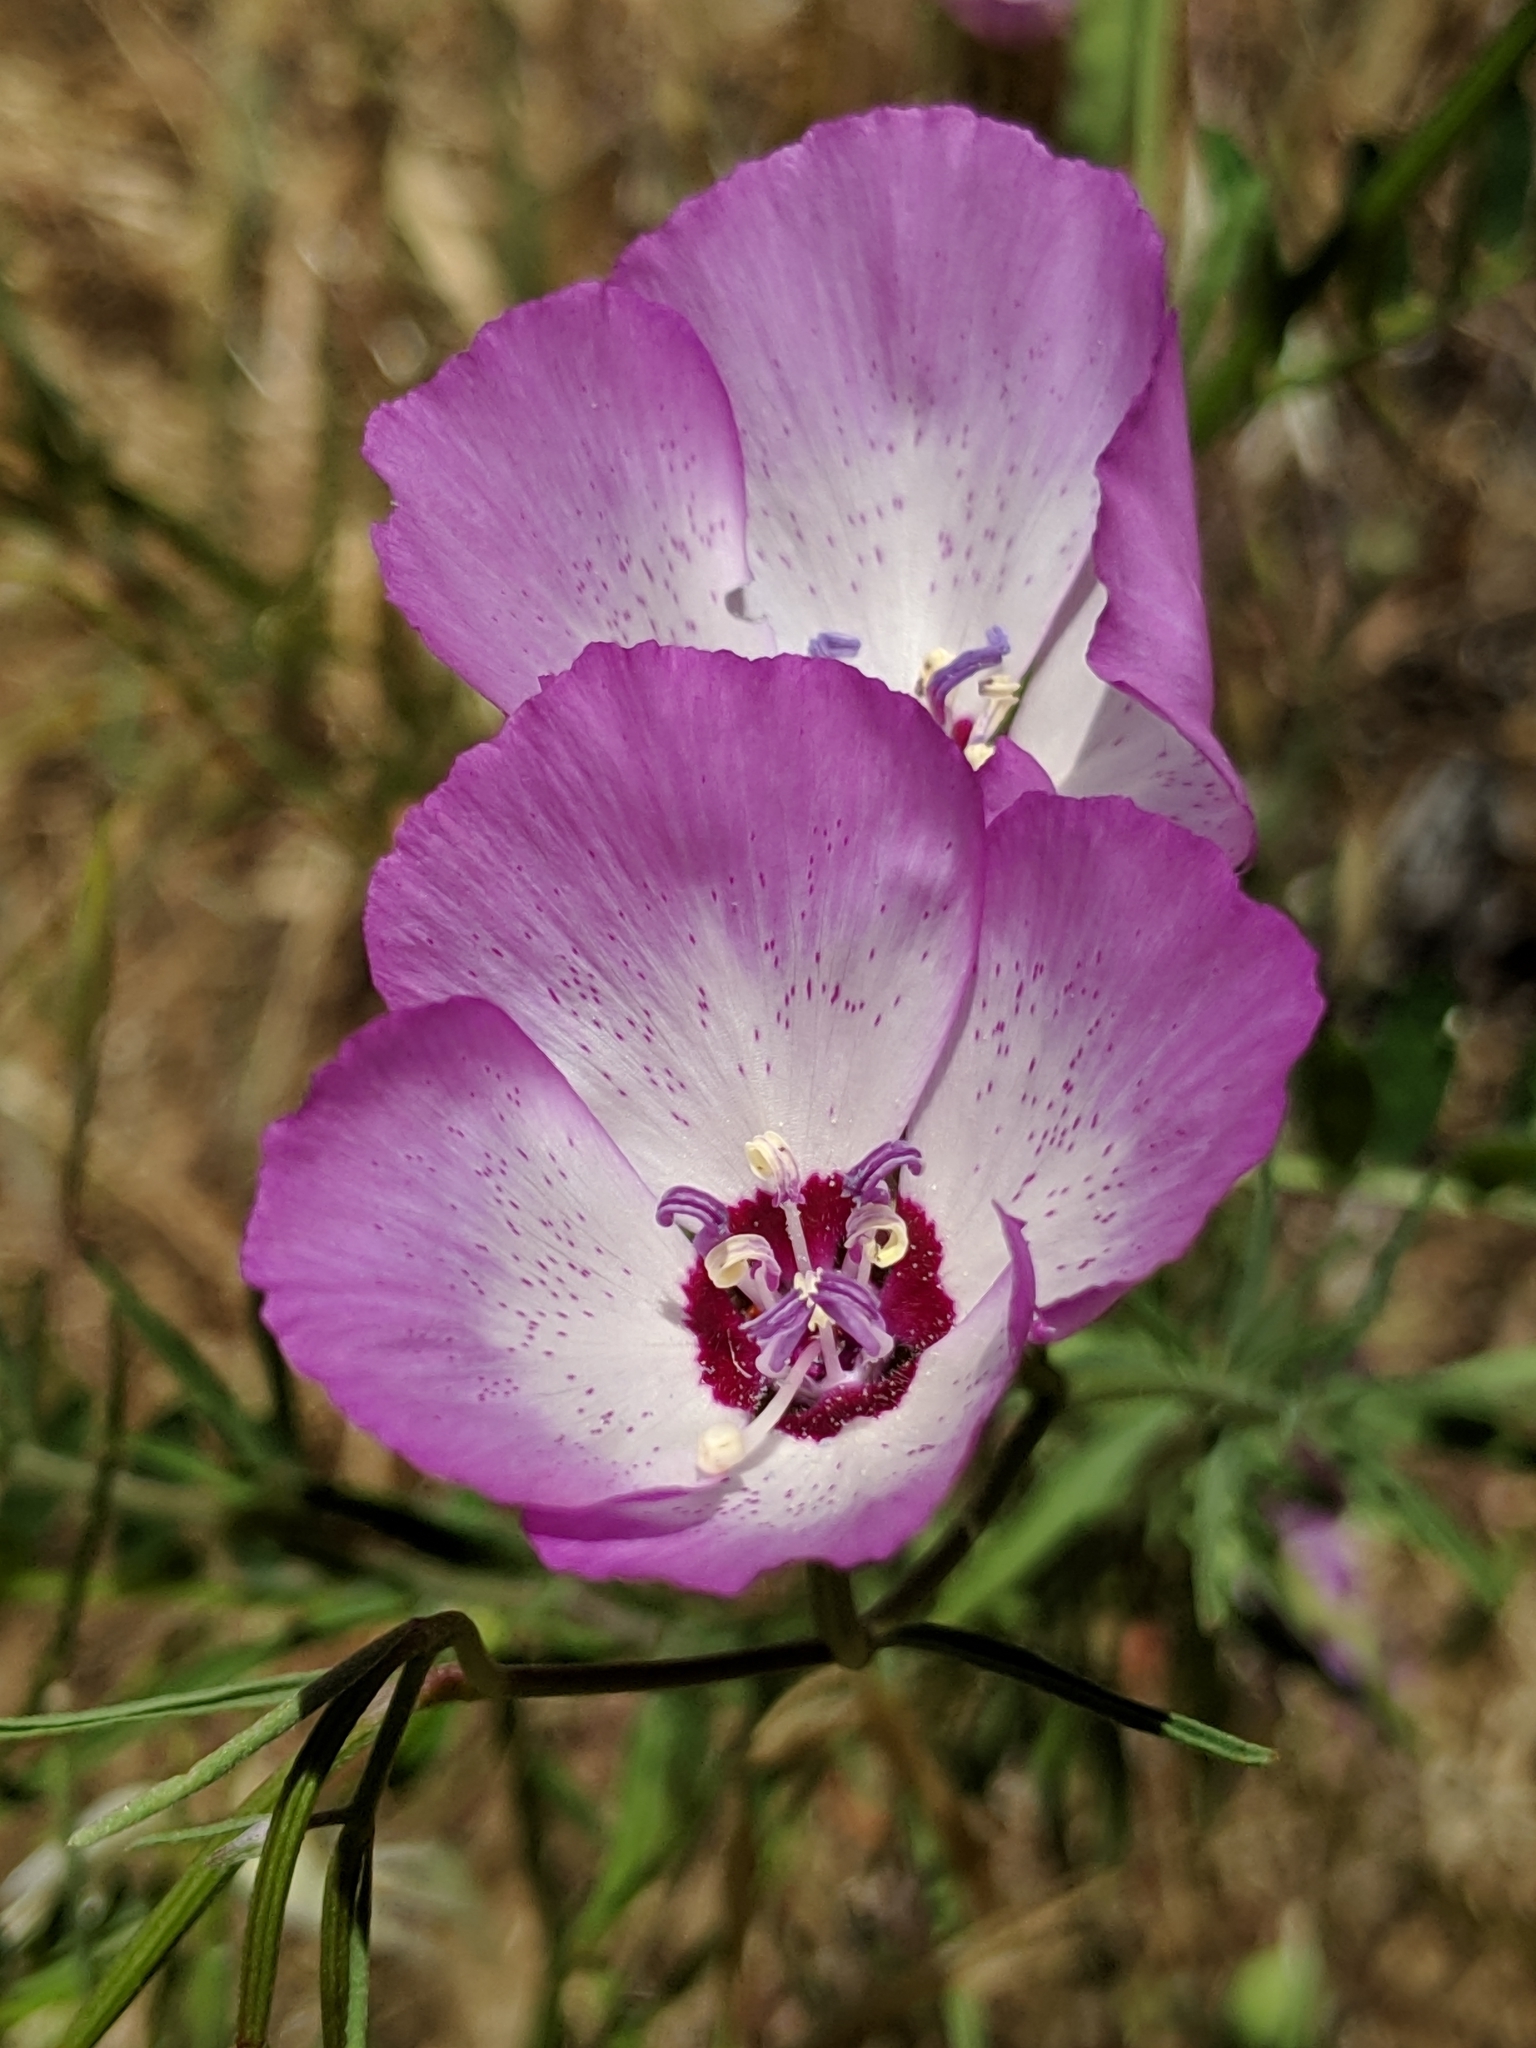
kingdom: Plantae
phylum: Tracheophyta
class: Magnoliopsida
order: Myrtales
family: Onagraceae
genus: Clarkia
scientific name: Clarkia cylindrica
